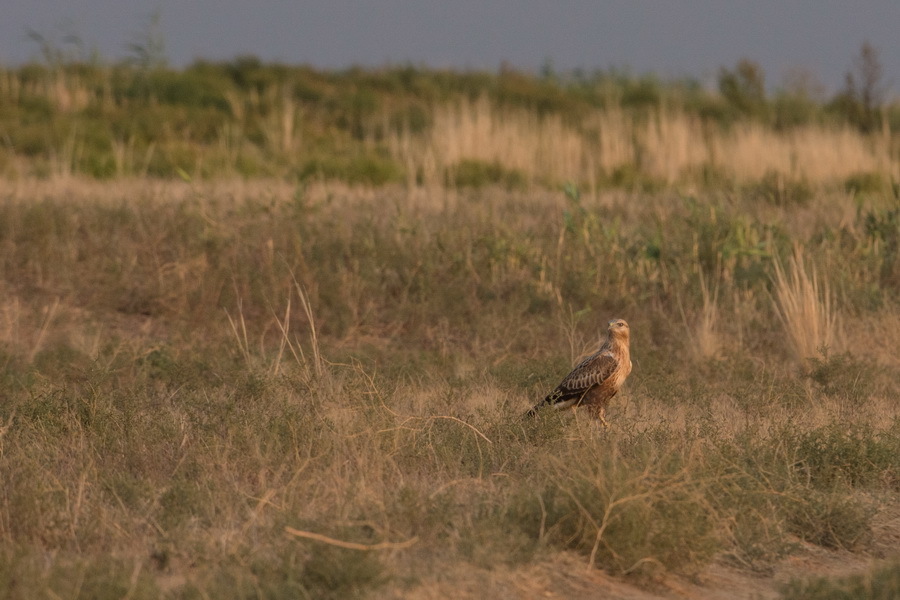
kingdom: Animalia
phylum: Chordata
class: Aves
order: Accipitriformes
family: Accipitridae
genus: Buteo
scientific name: Buteo rufinus
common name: Long-legged buzzard
